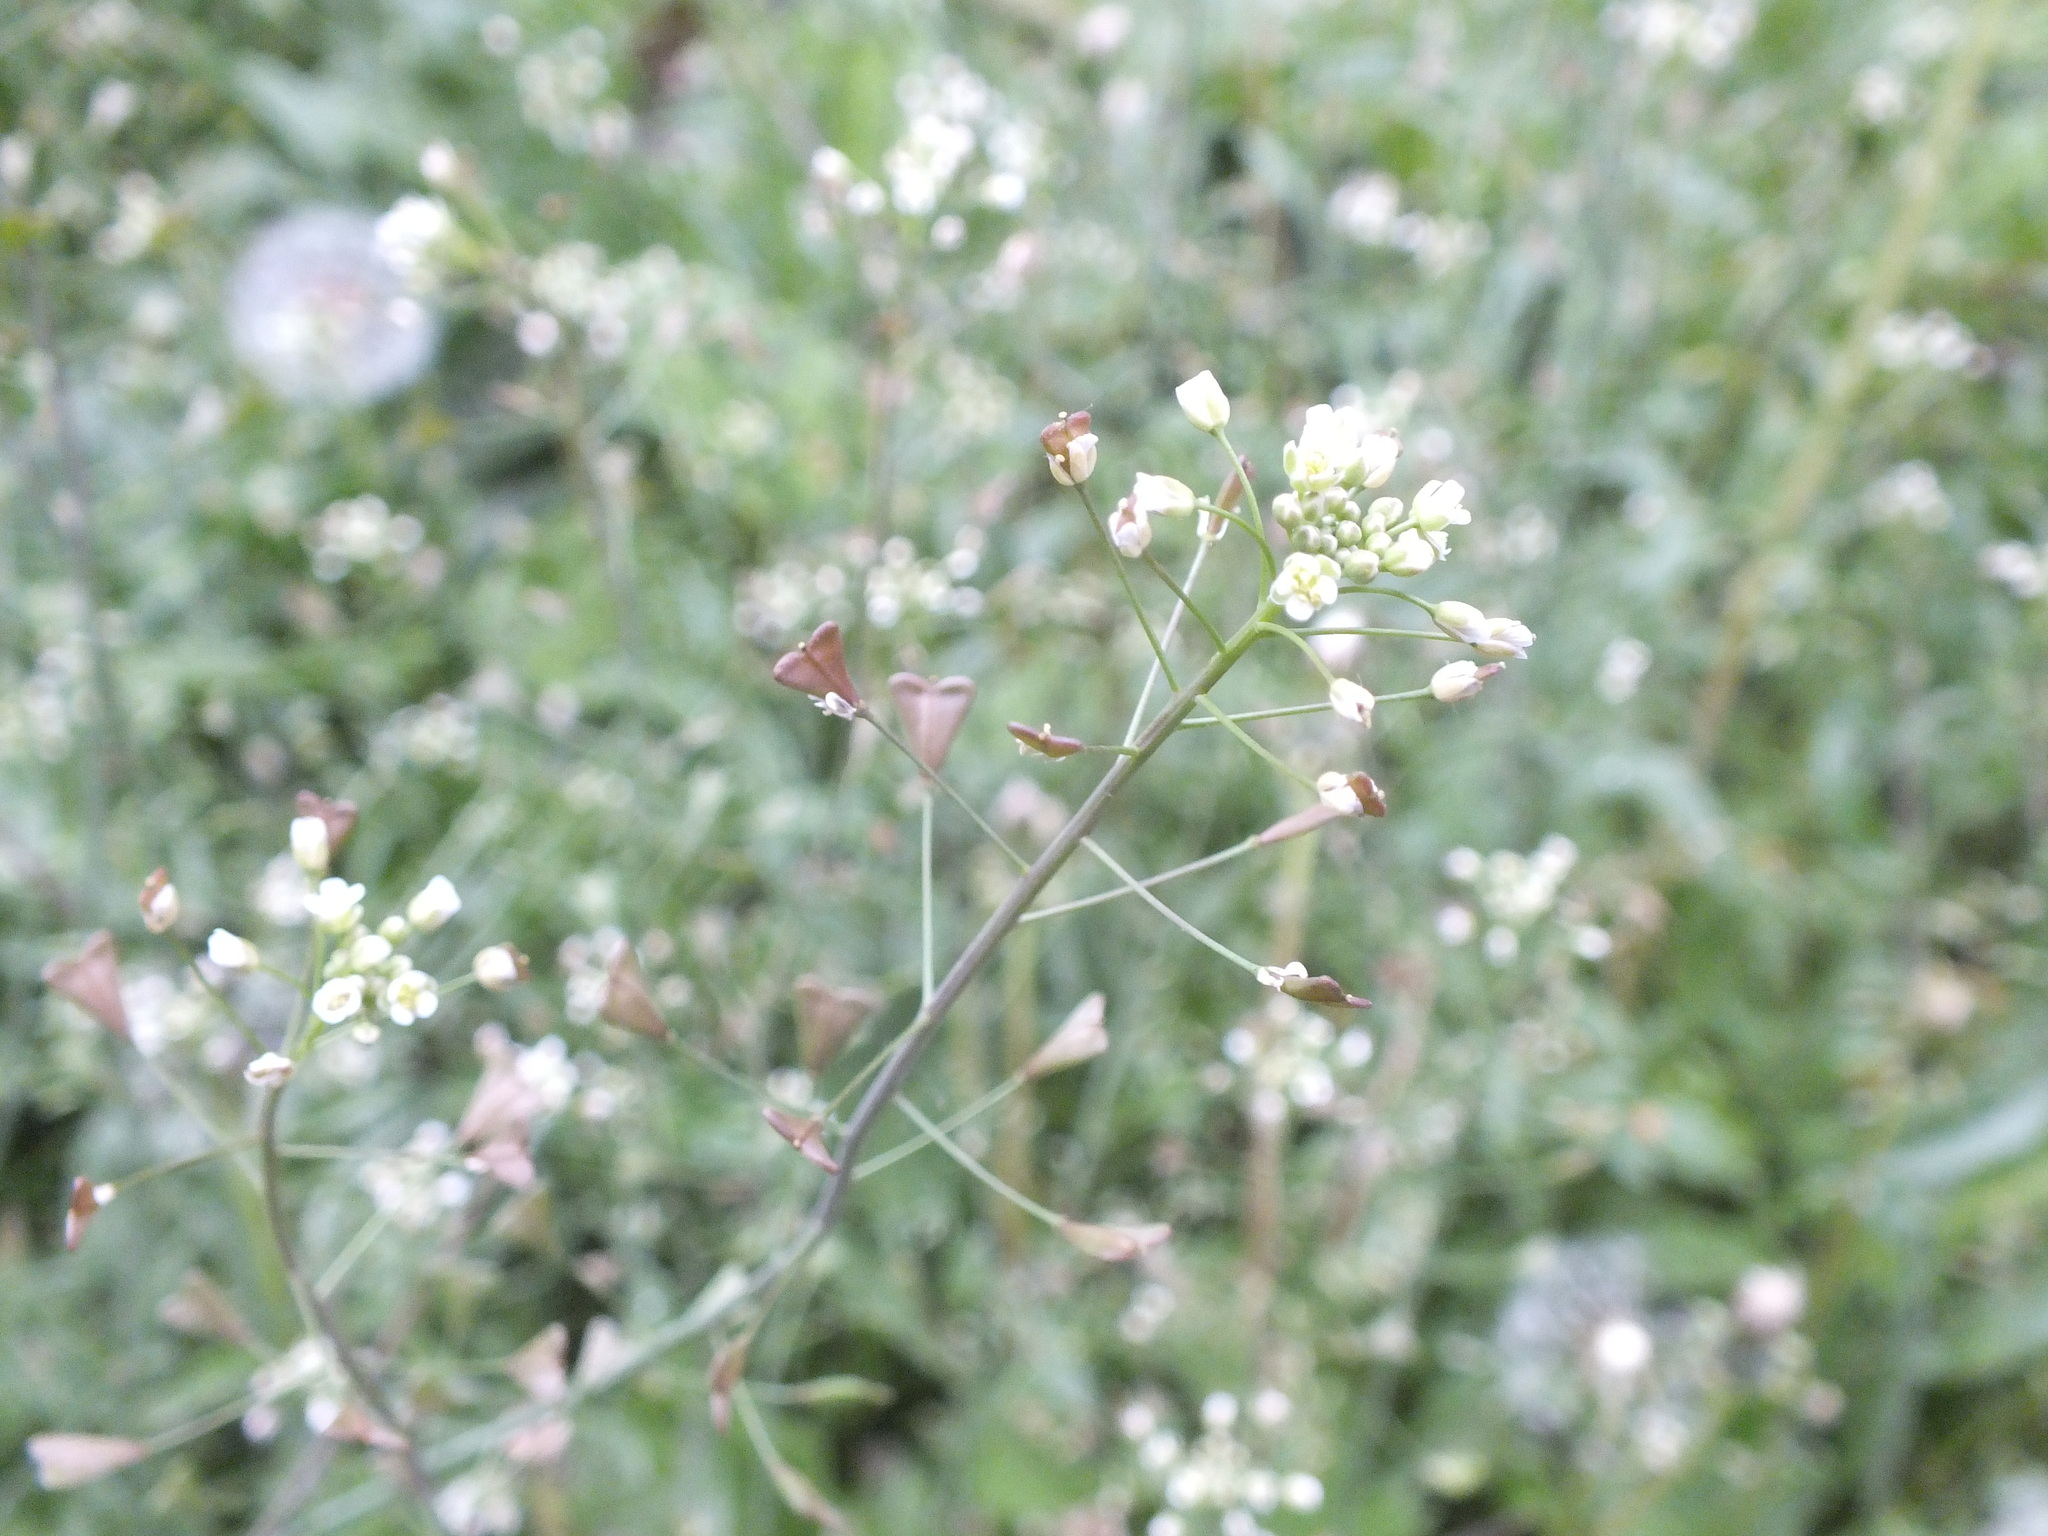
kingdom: Plantae
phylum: Tracheophyta
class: Magnoliopsida
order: Brassicales
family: Brassicaceae
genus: Capsella
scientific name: Capsella bursa-pastoris
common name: Shepherd's purse
